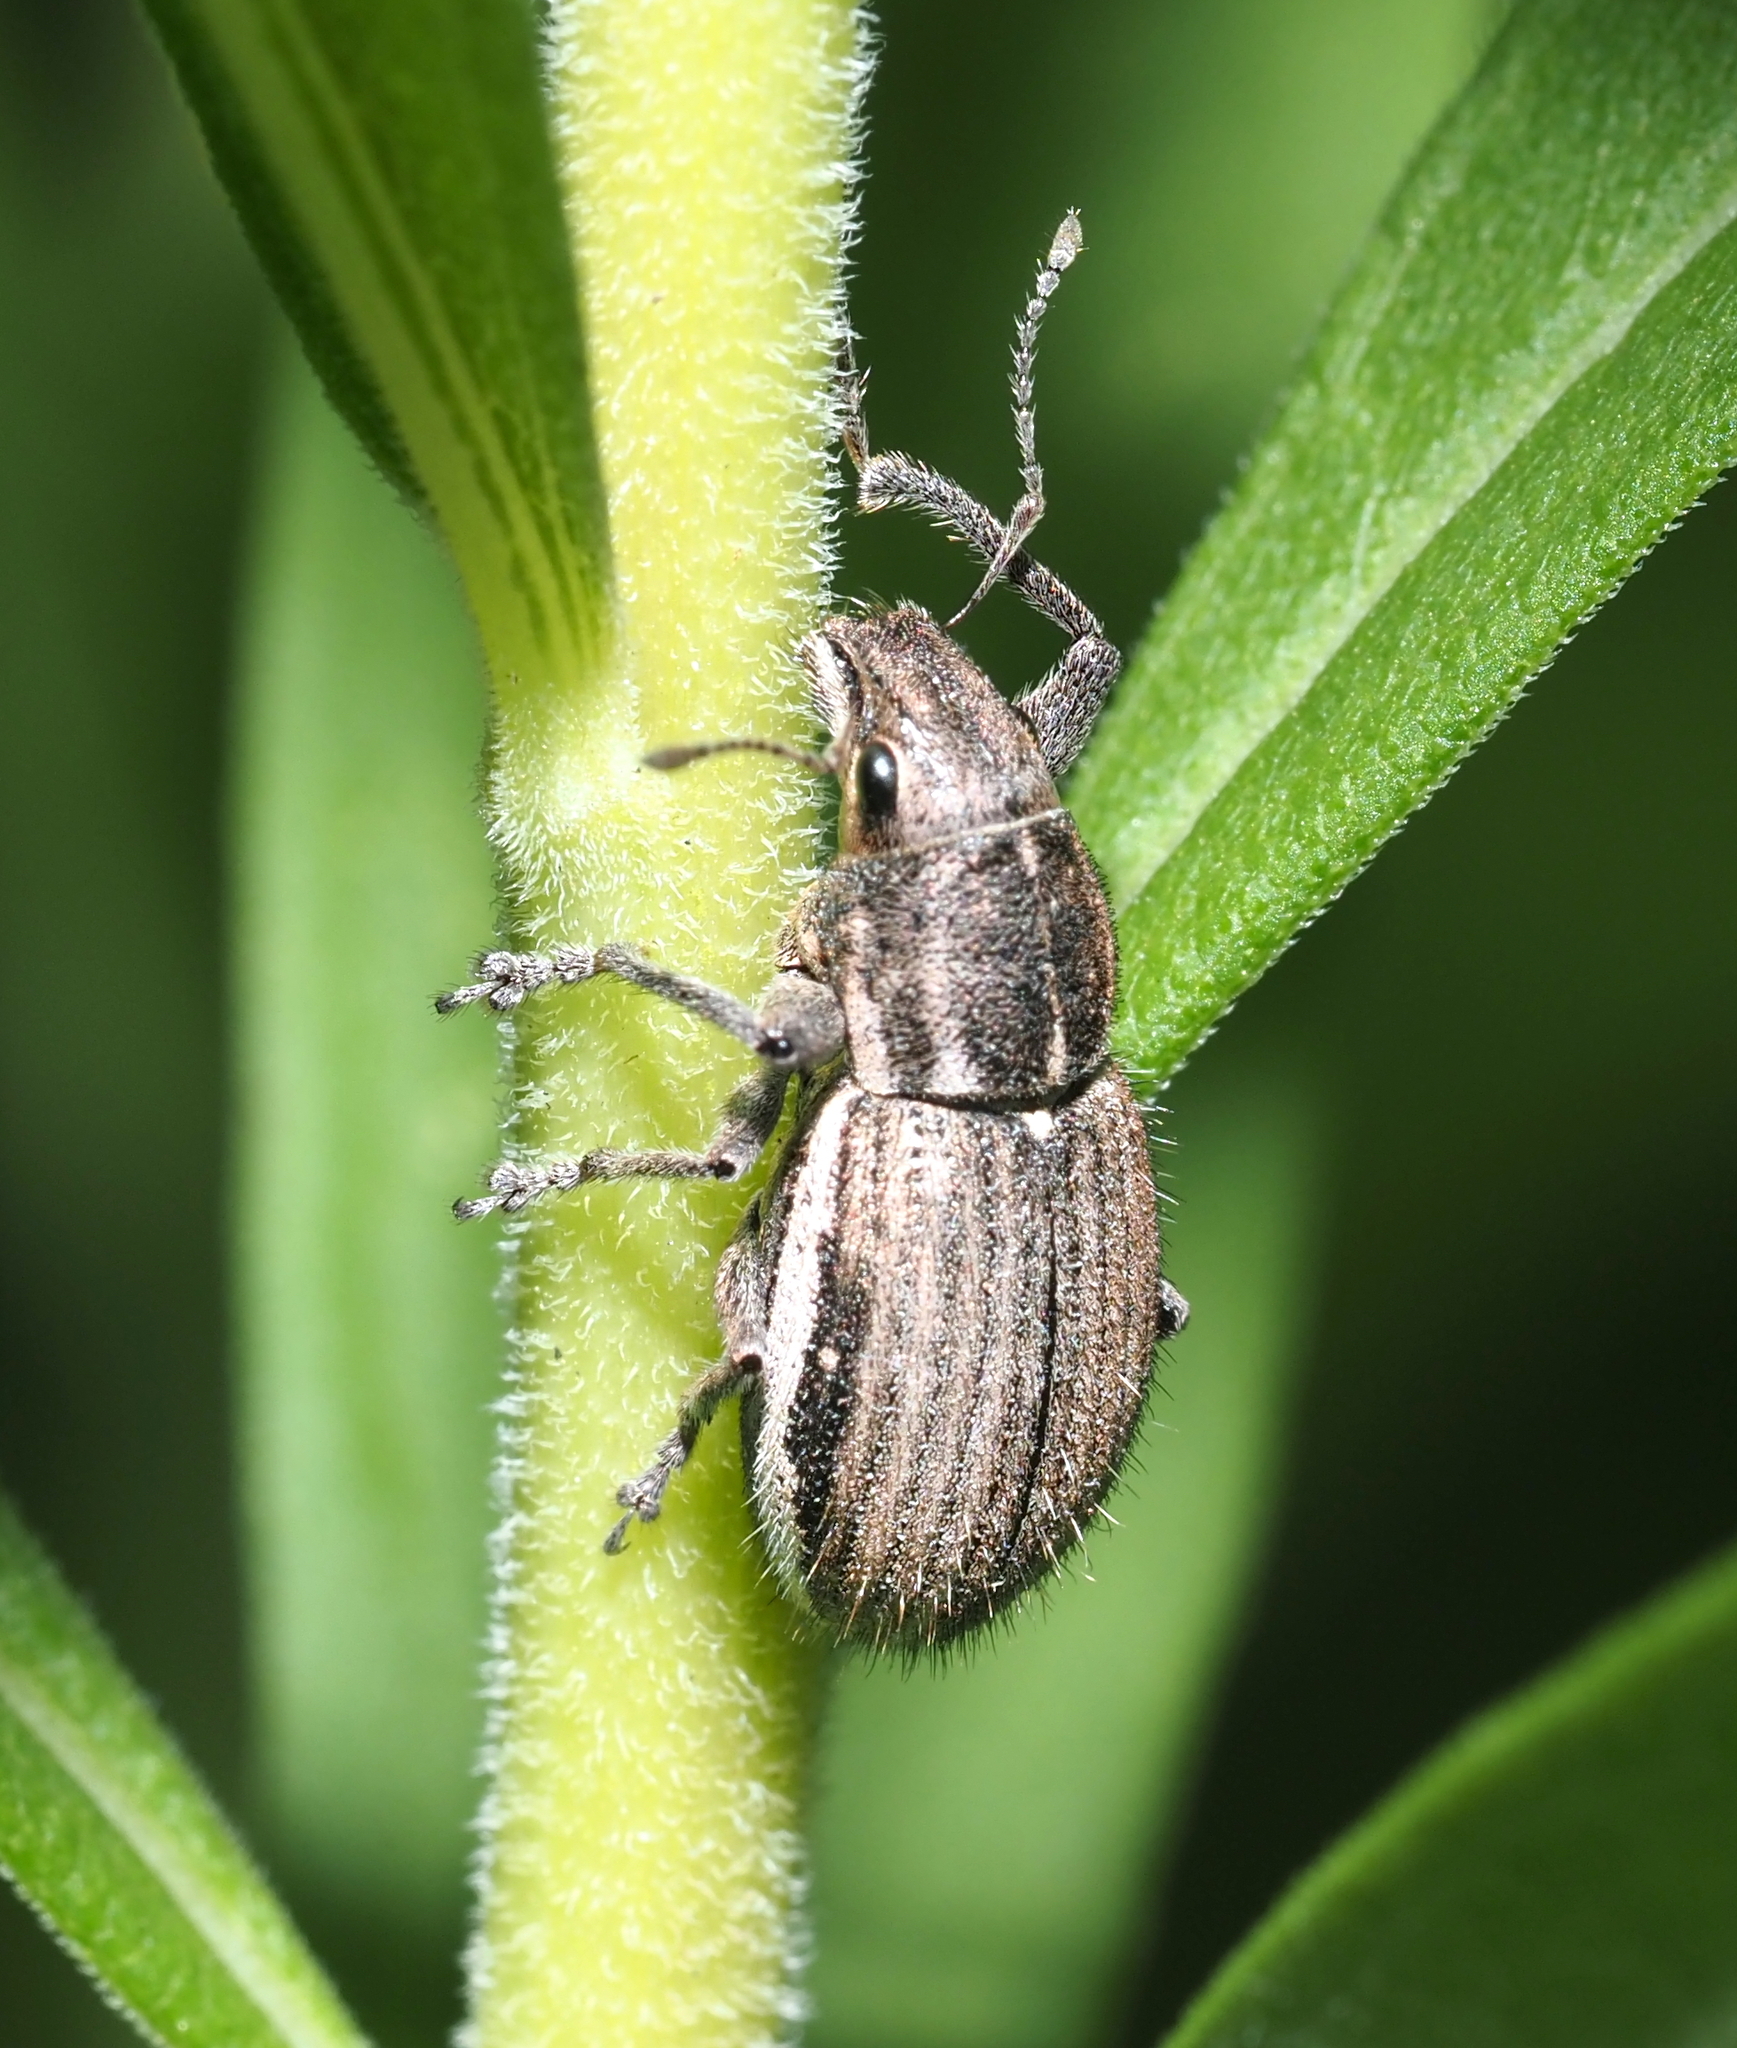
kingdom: Animalia
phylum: Arthropoda
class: Insecta
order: Coleoptera
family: Curculionidae
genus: Naupactus
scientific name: Naupactus leucoloma
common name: Whitefringed beetle
